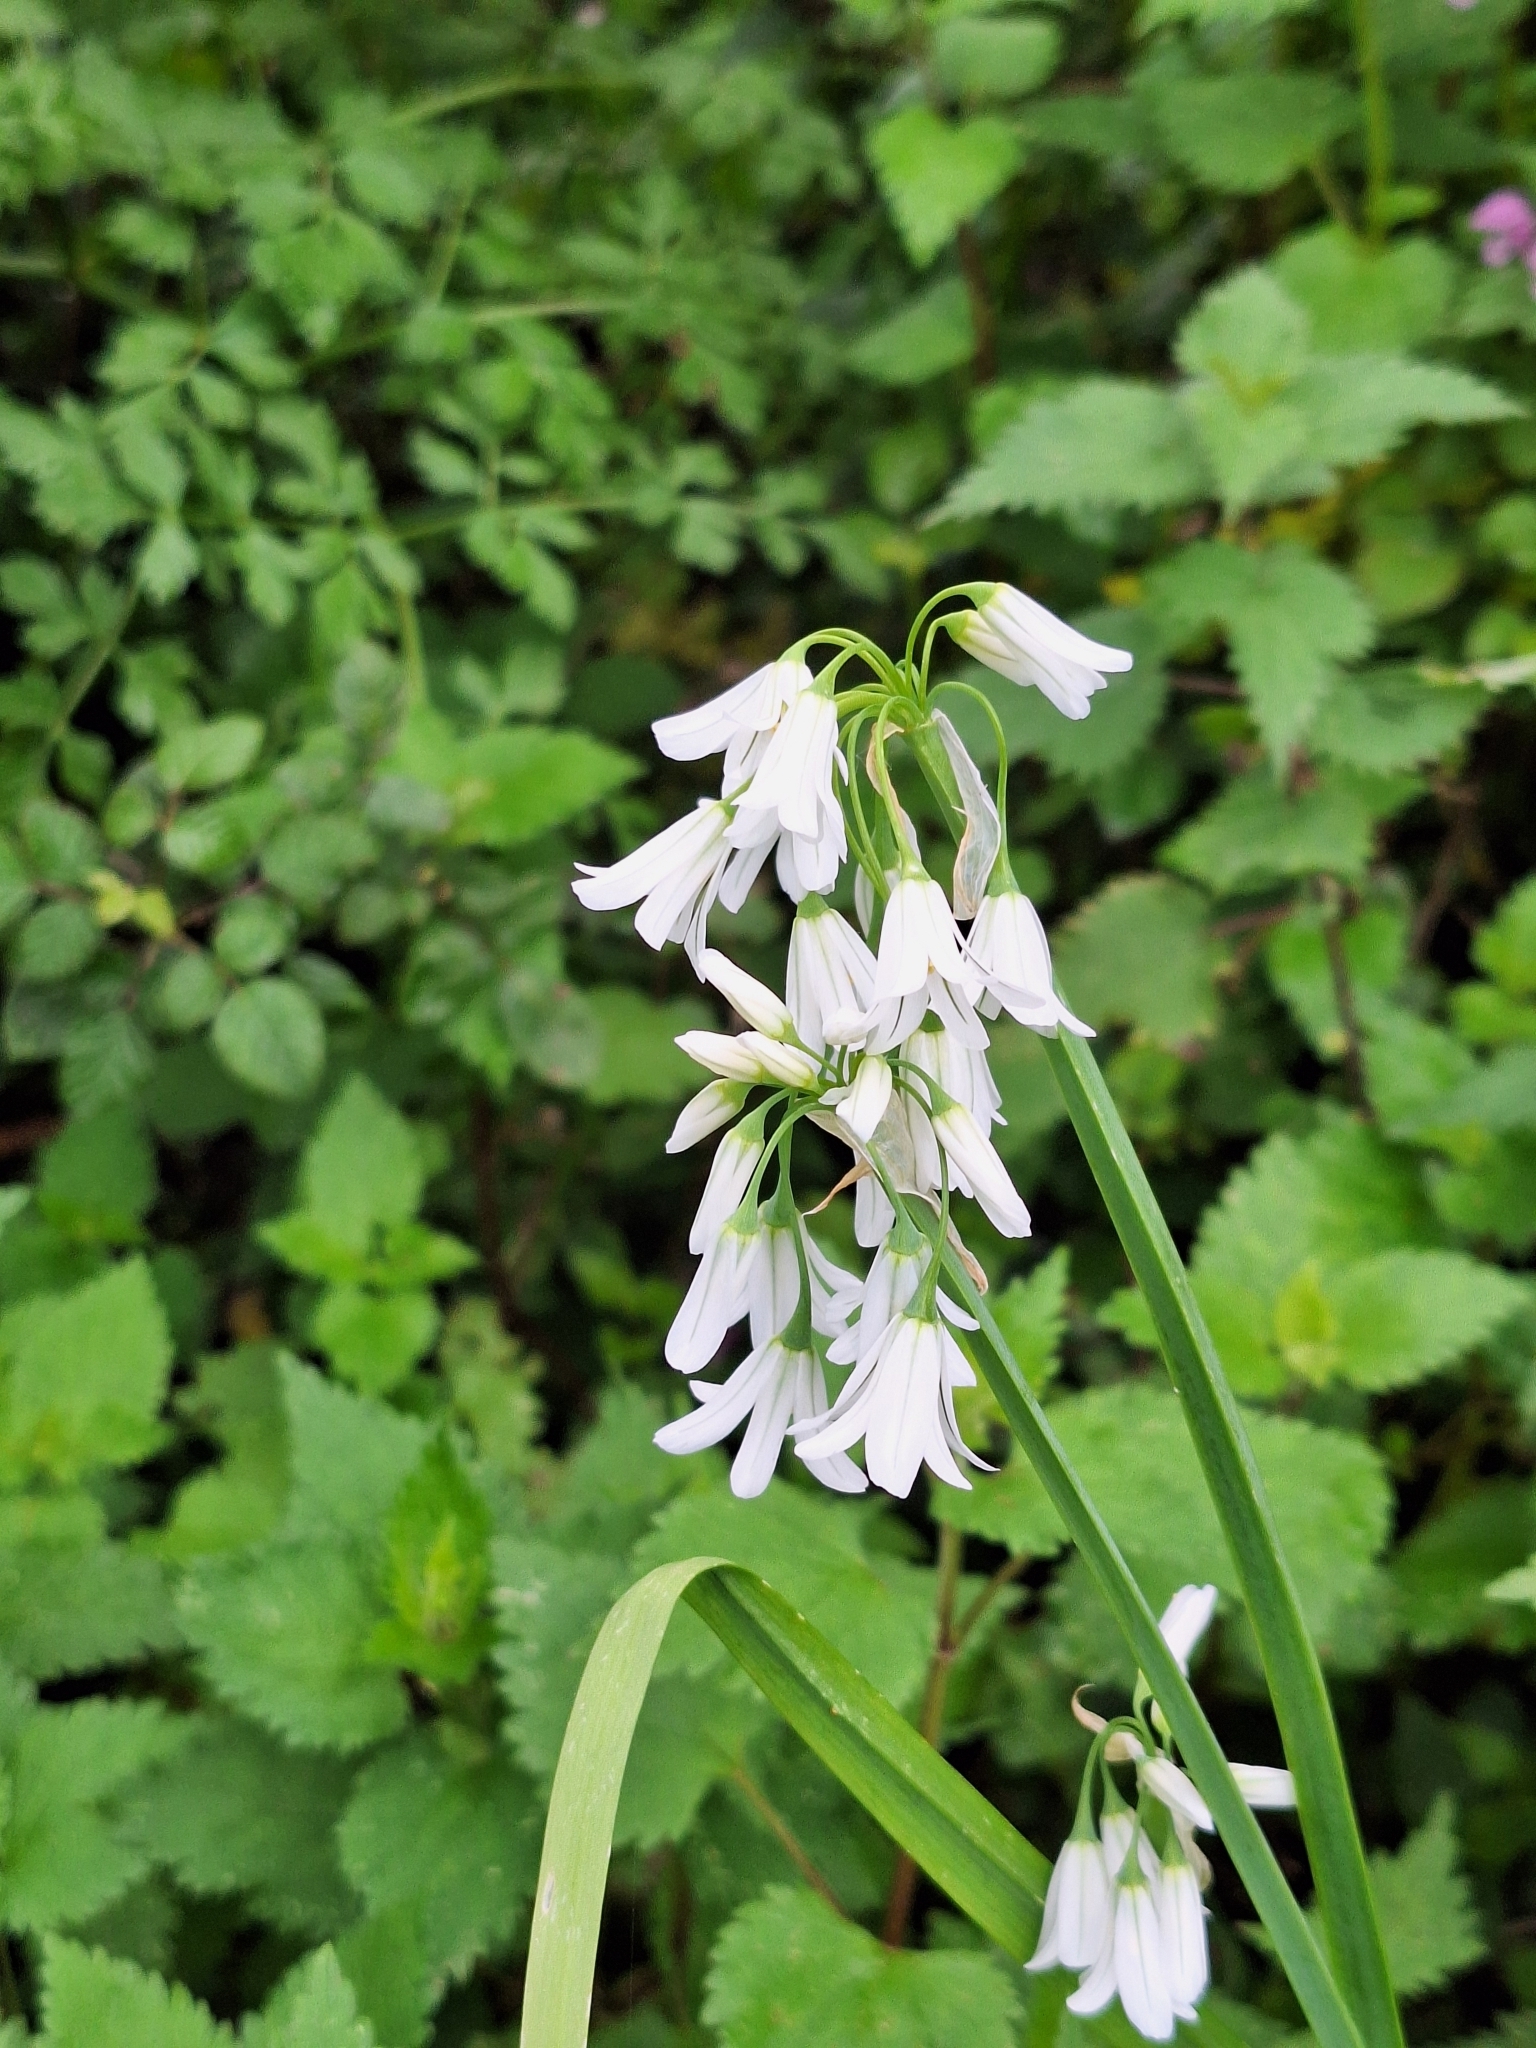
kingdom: Plantae
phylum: Tracheophyta
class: Liliopsida
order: Asparagales
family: Amaryllidaceae
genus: Allium
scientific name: Allium triquetrum
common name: Three-cornered garlic
